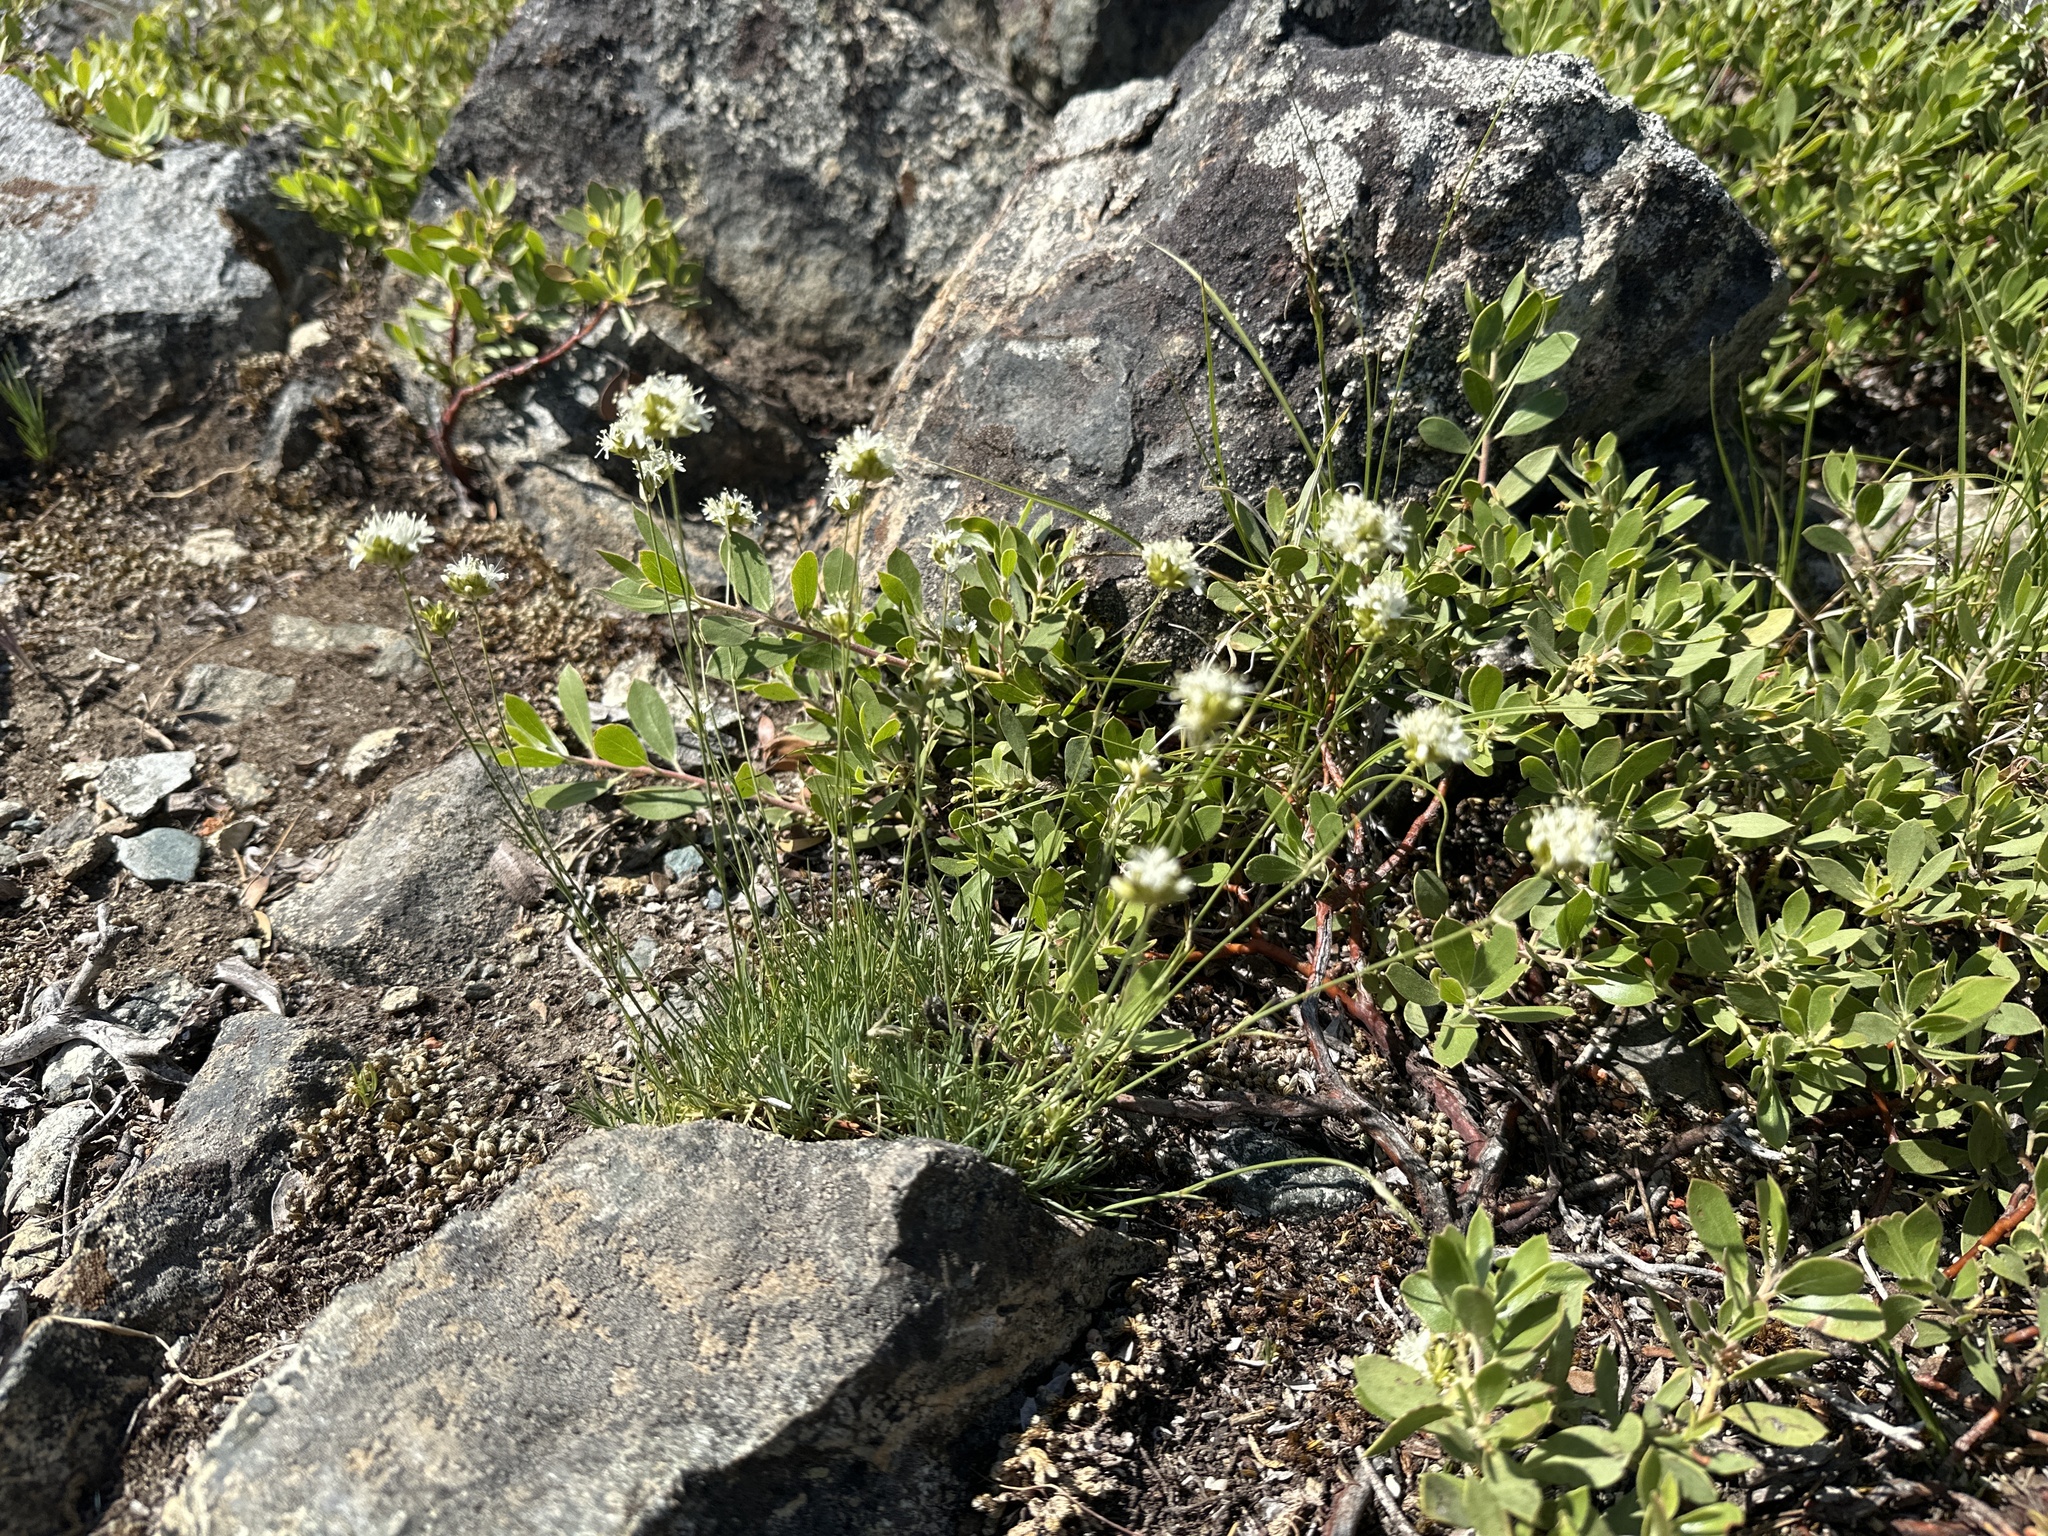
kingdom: Plantae
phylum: Tracheophyta
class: Magnoliopsida
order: Caryophyllales
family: Caryophyllaceae
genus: Eremogone
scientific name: Eremogone congesta
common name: Ballhead sandwort
